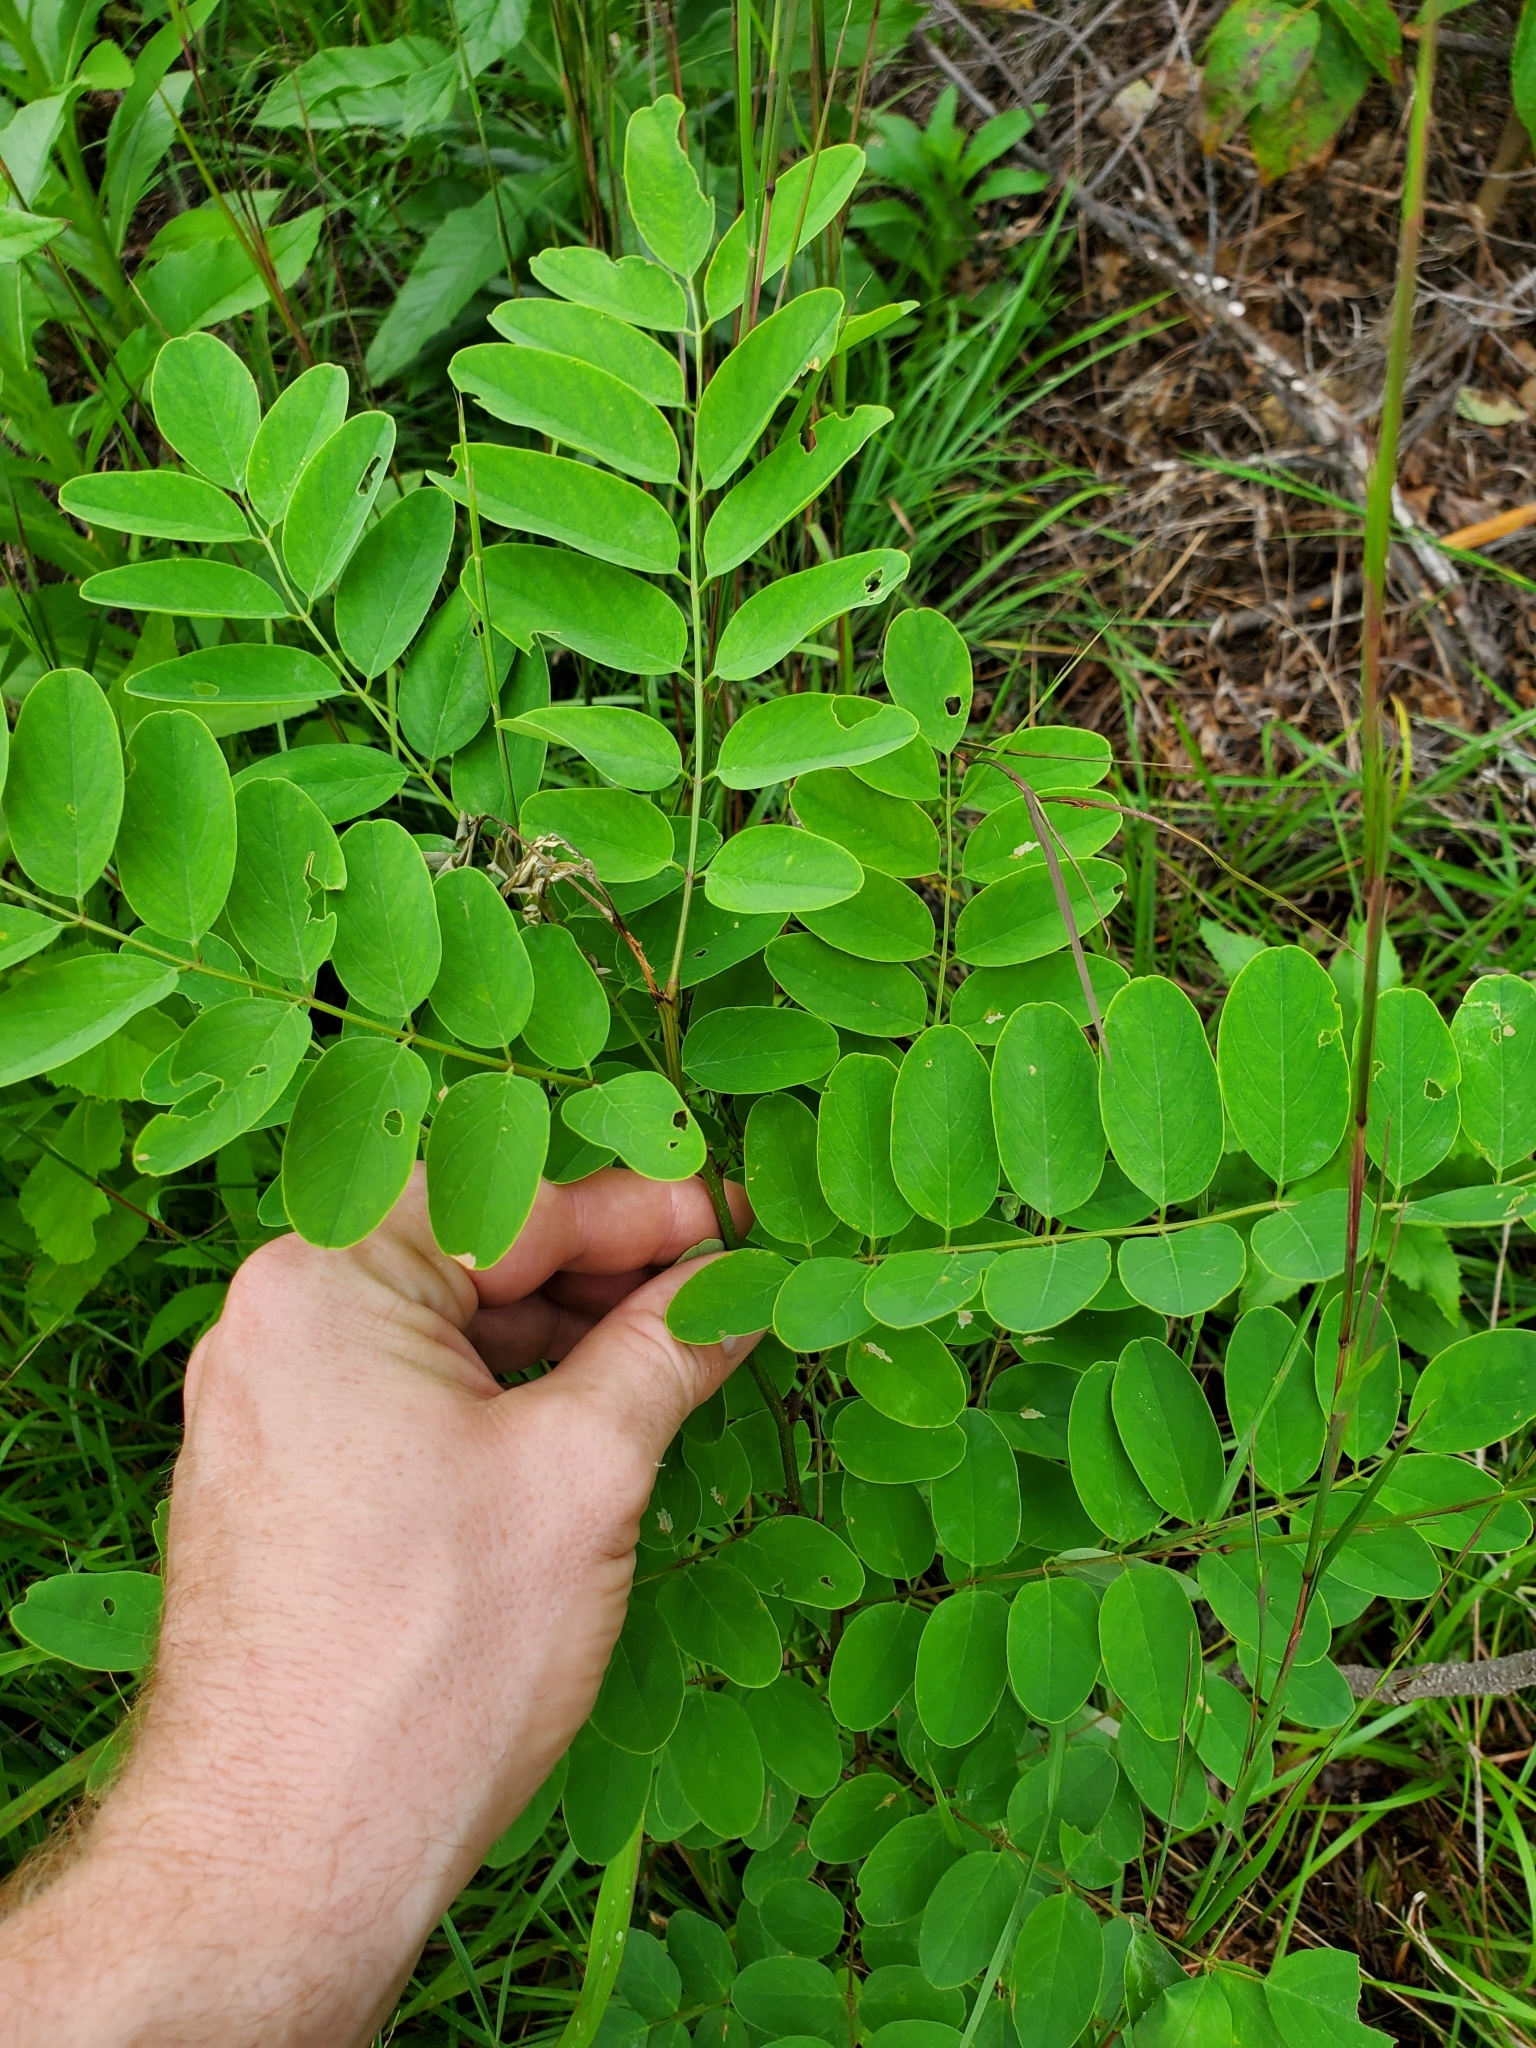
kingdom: Animalia
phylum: Arthropoda
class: Insecta
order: Lepidoptera
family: Gracillariidae
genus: Parectopa
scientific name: Parectopa robiniella
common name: Locust digitate leafminer
